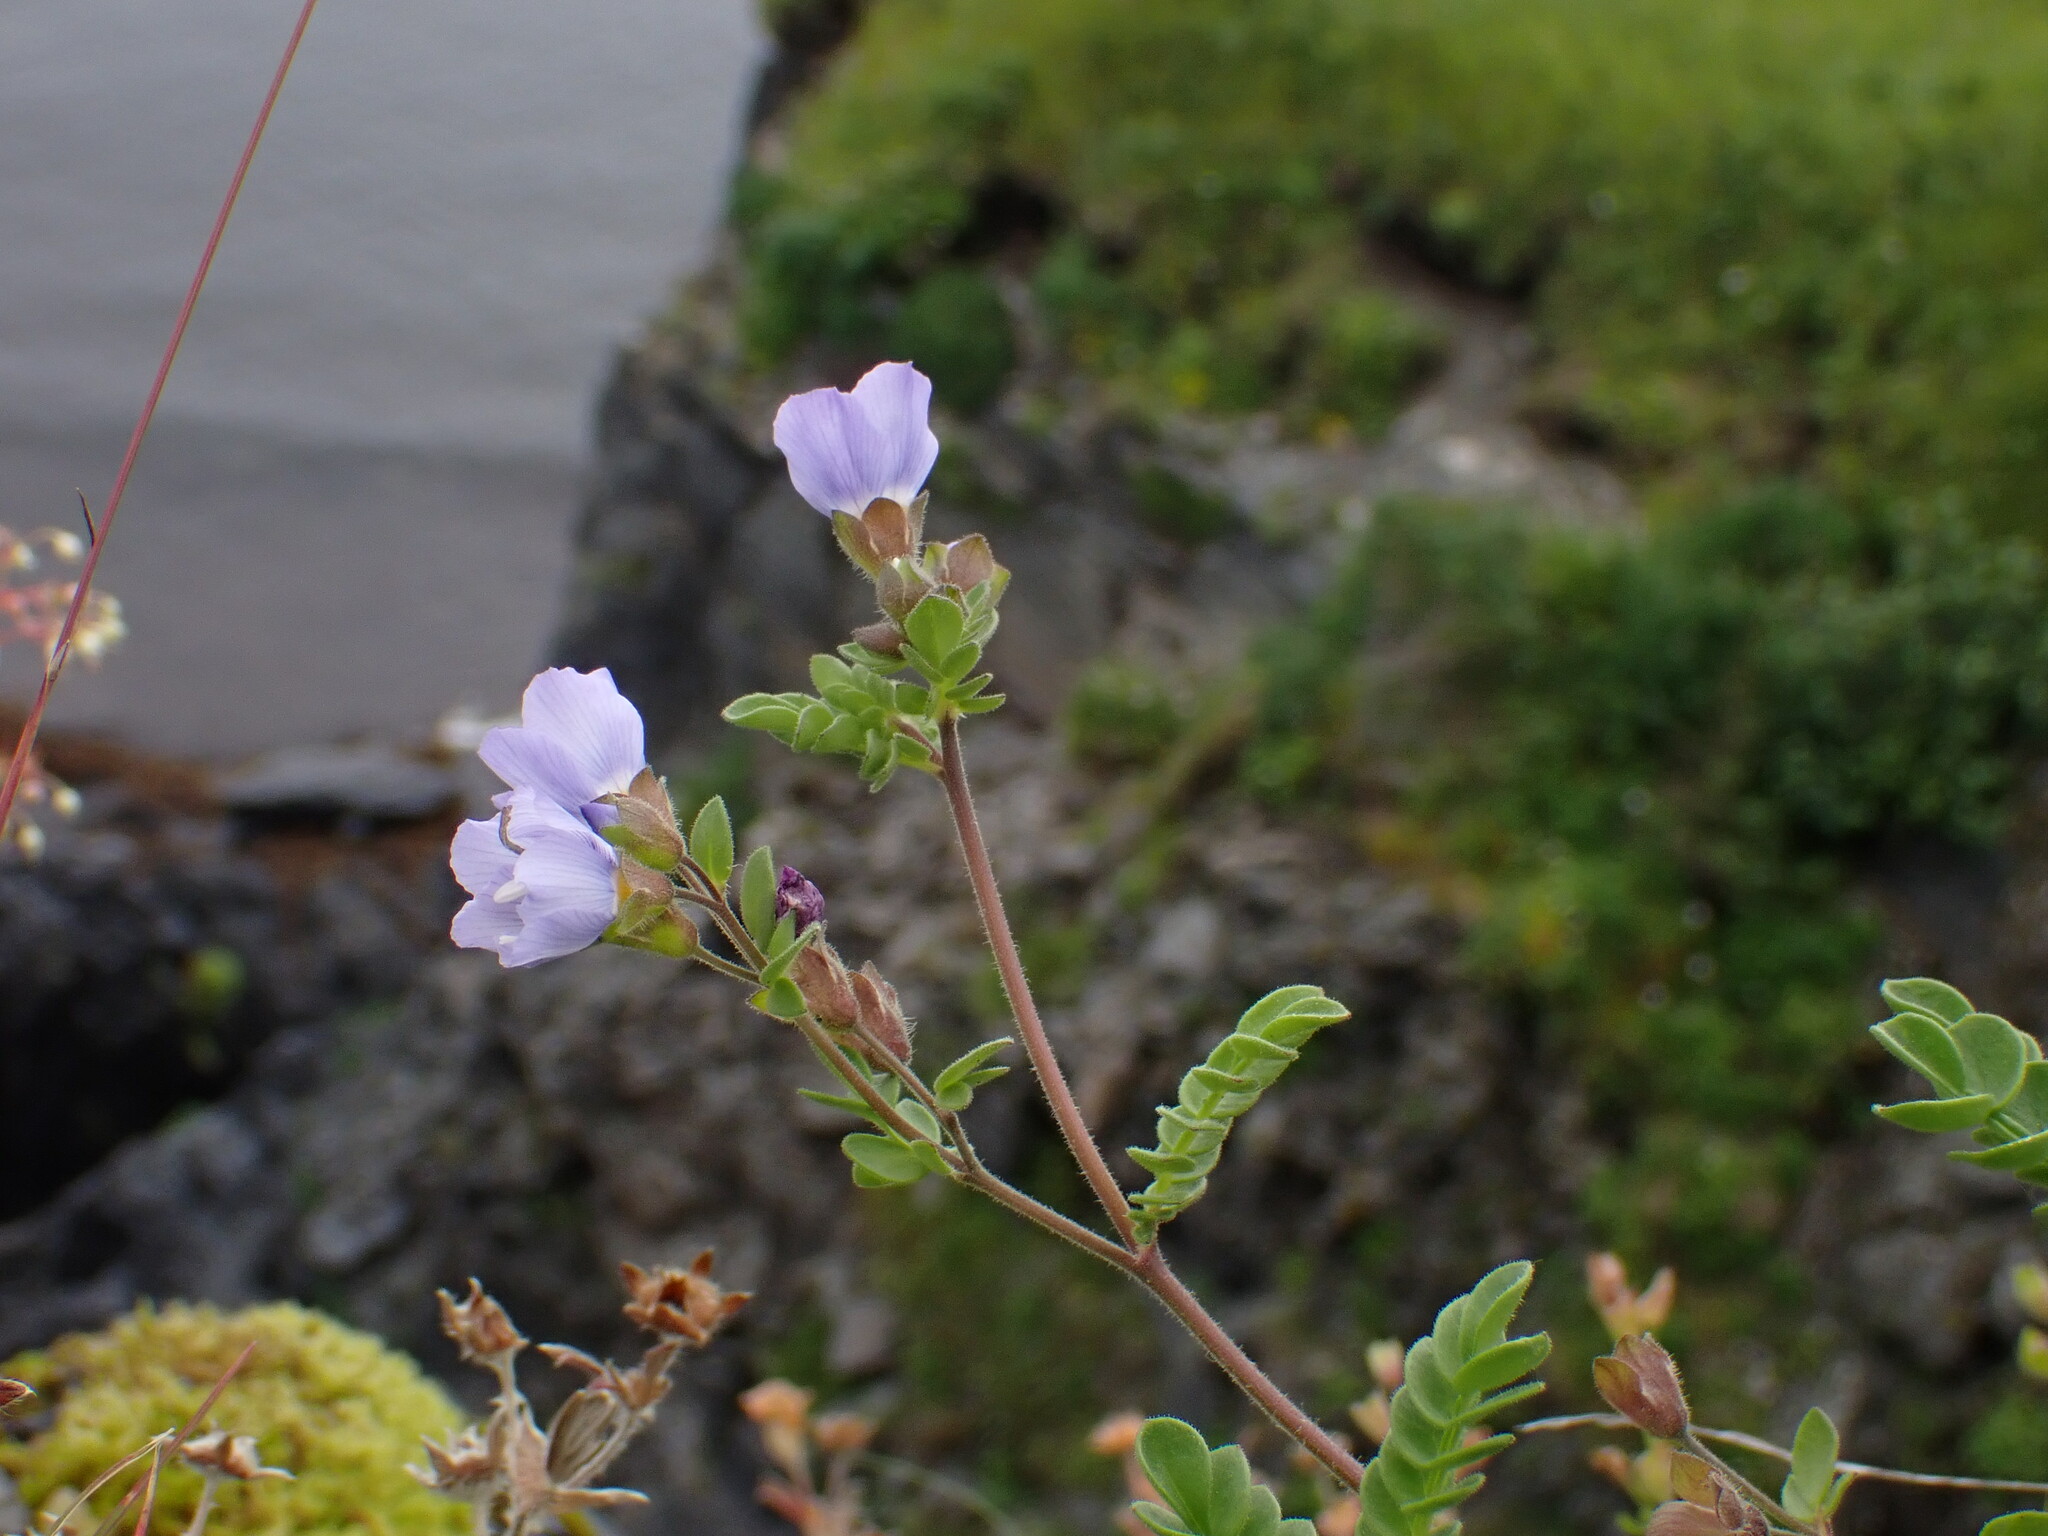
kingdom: Plantae
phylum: Tracheophyta
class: Magnoliopsida
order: Ericales
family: Polemoniaceae
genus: Polemonium
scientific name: Polemonium pulcherrimum
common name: Short jacob's-ladder
